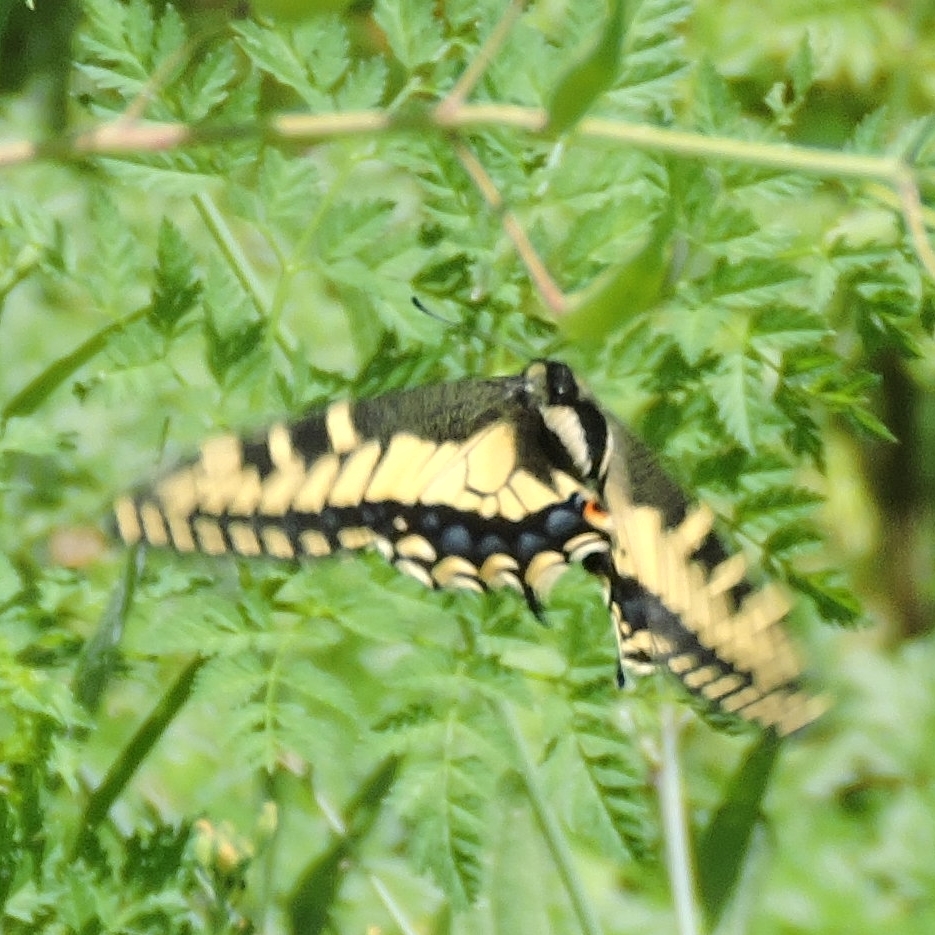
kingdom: Animalia
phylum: Arthropoda
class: Insecta
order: Lepidoptera
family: Papilionidae
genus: Papilio
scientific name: Papilio zelicaon
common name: Anise swallowtail
